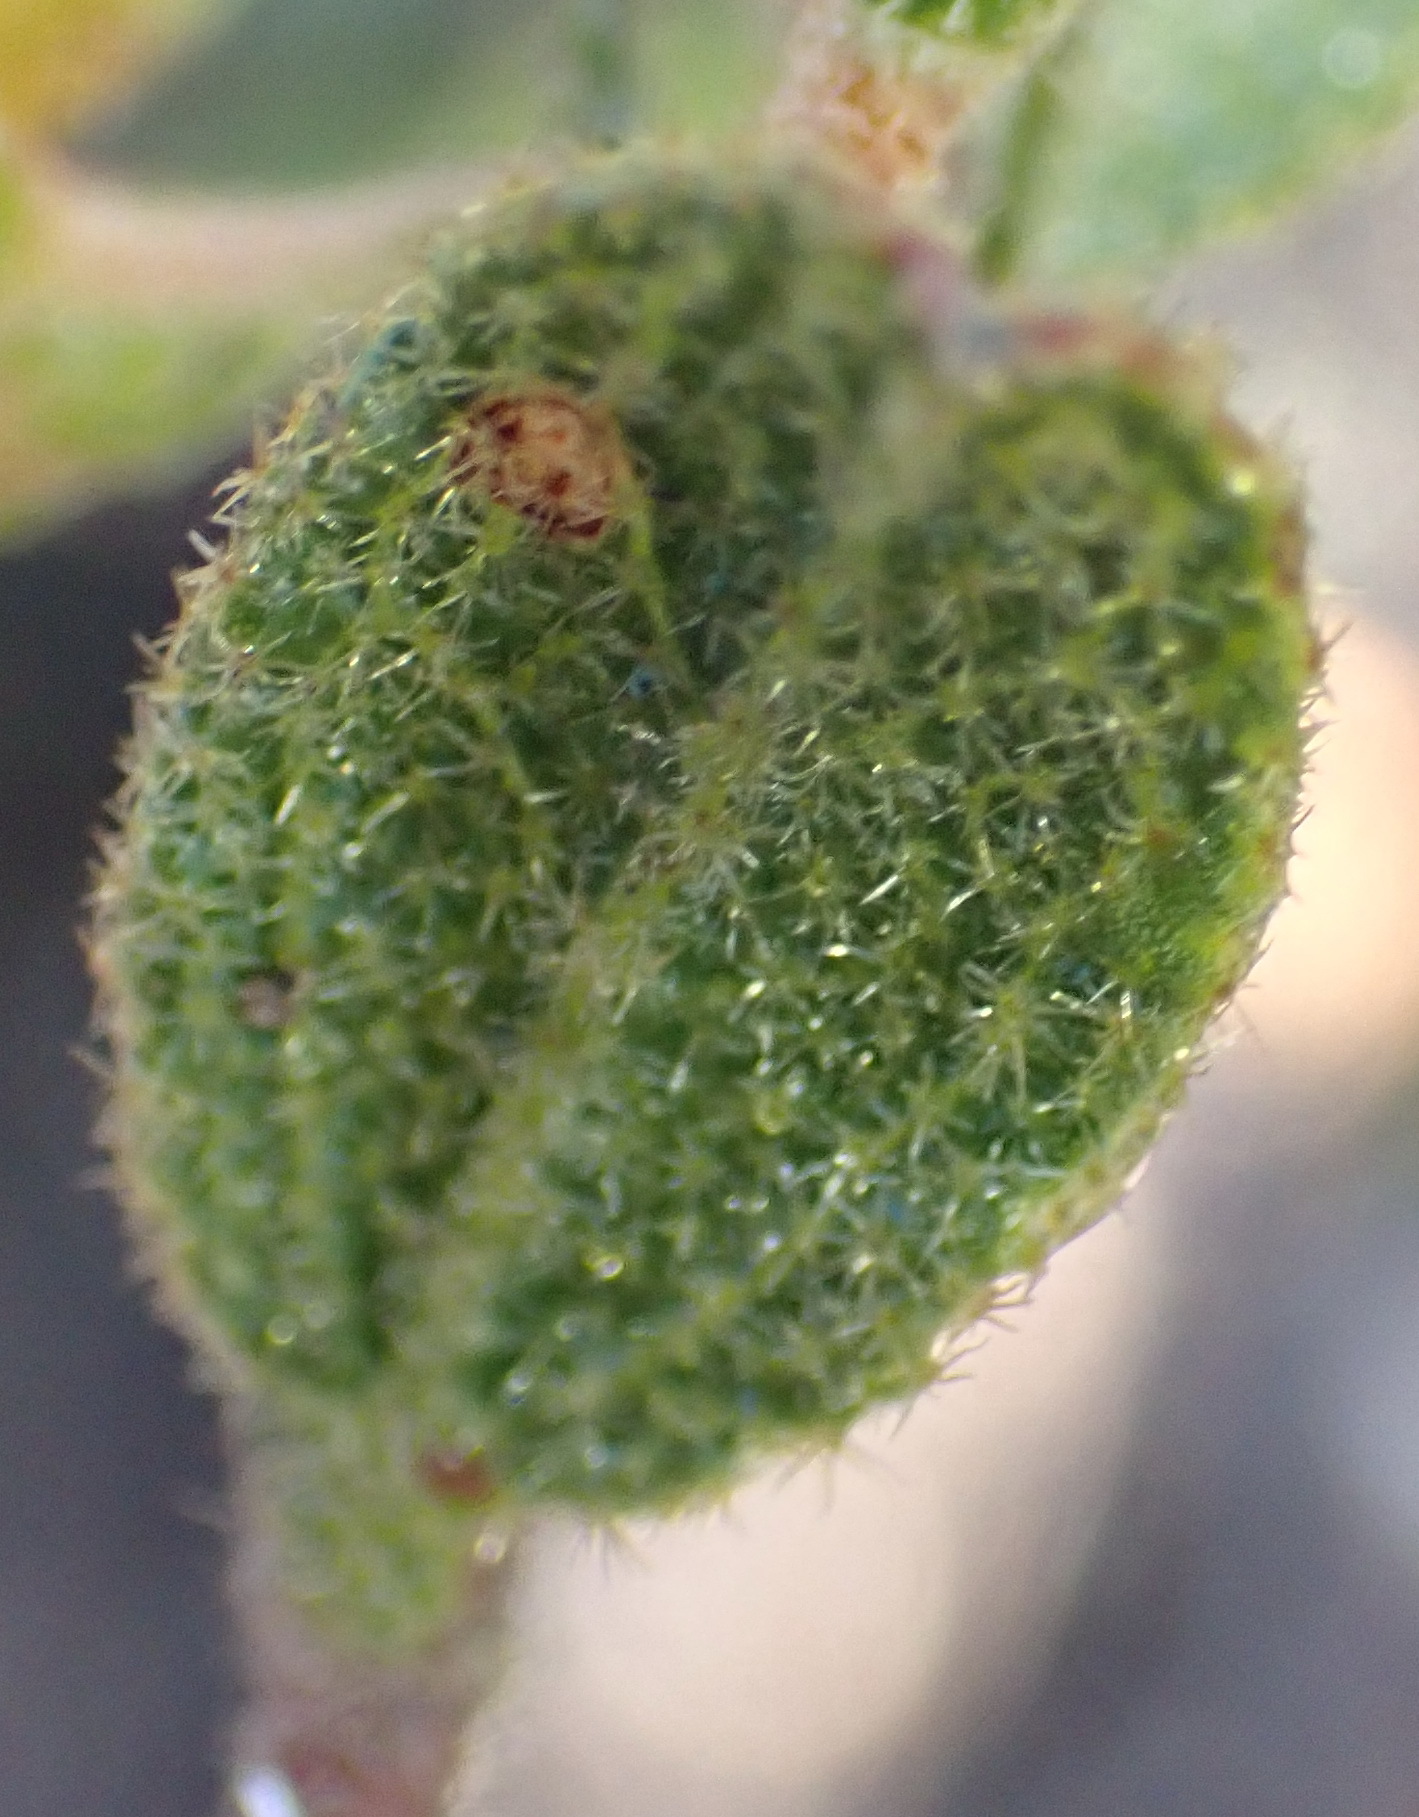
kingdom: Plantae
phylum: Tracheophyta
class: Magnoliopsida
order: Malvales
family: Malvaceae
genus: Hermannia
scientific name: Hermannia decipiens
